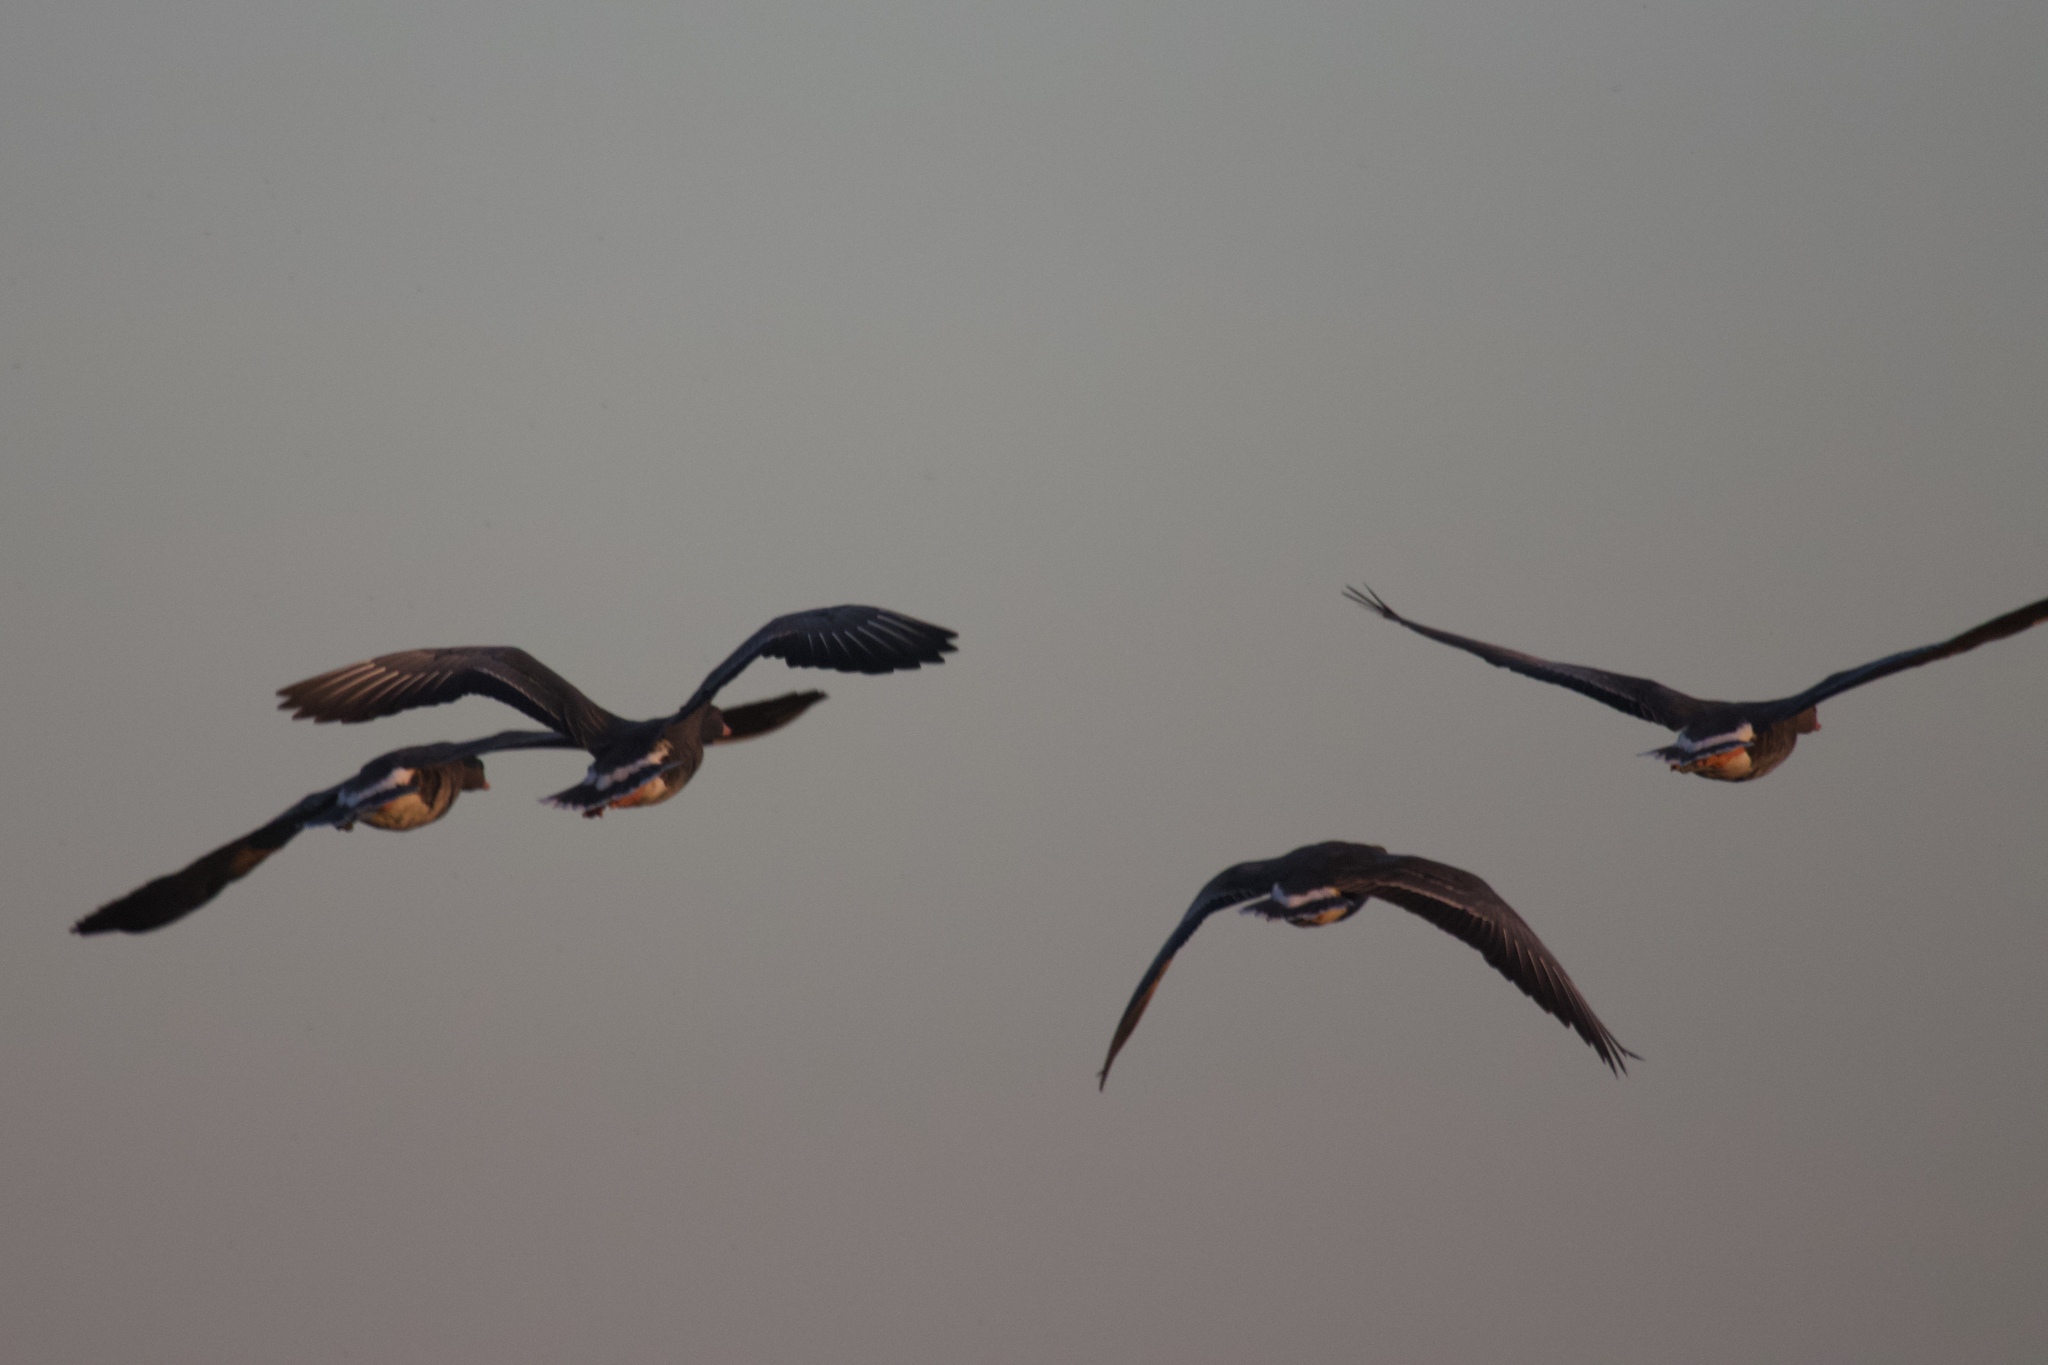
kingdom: Animalia
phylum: Chordata
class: Aves
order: Anseriformes
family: Anatidae
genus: Anser
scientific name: Anser albifrons
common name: Greater white-fronted goose
